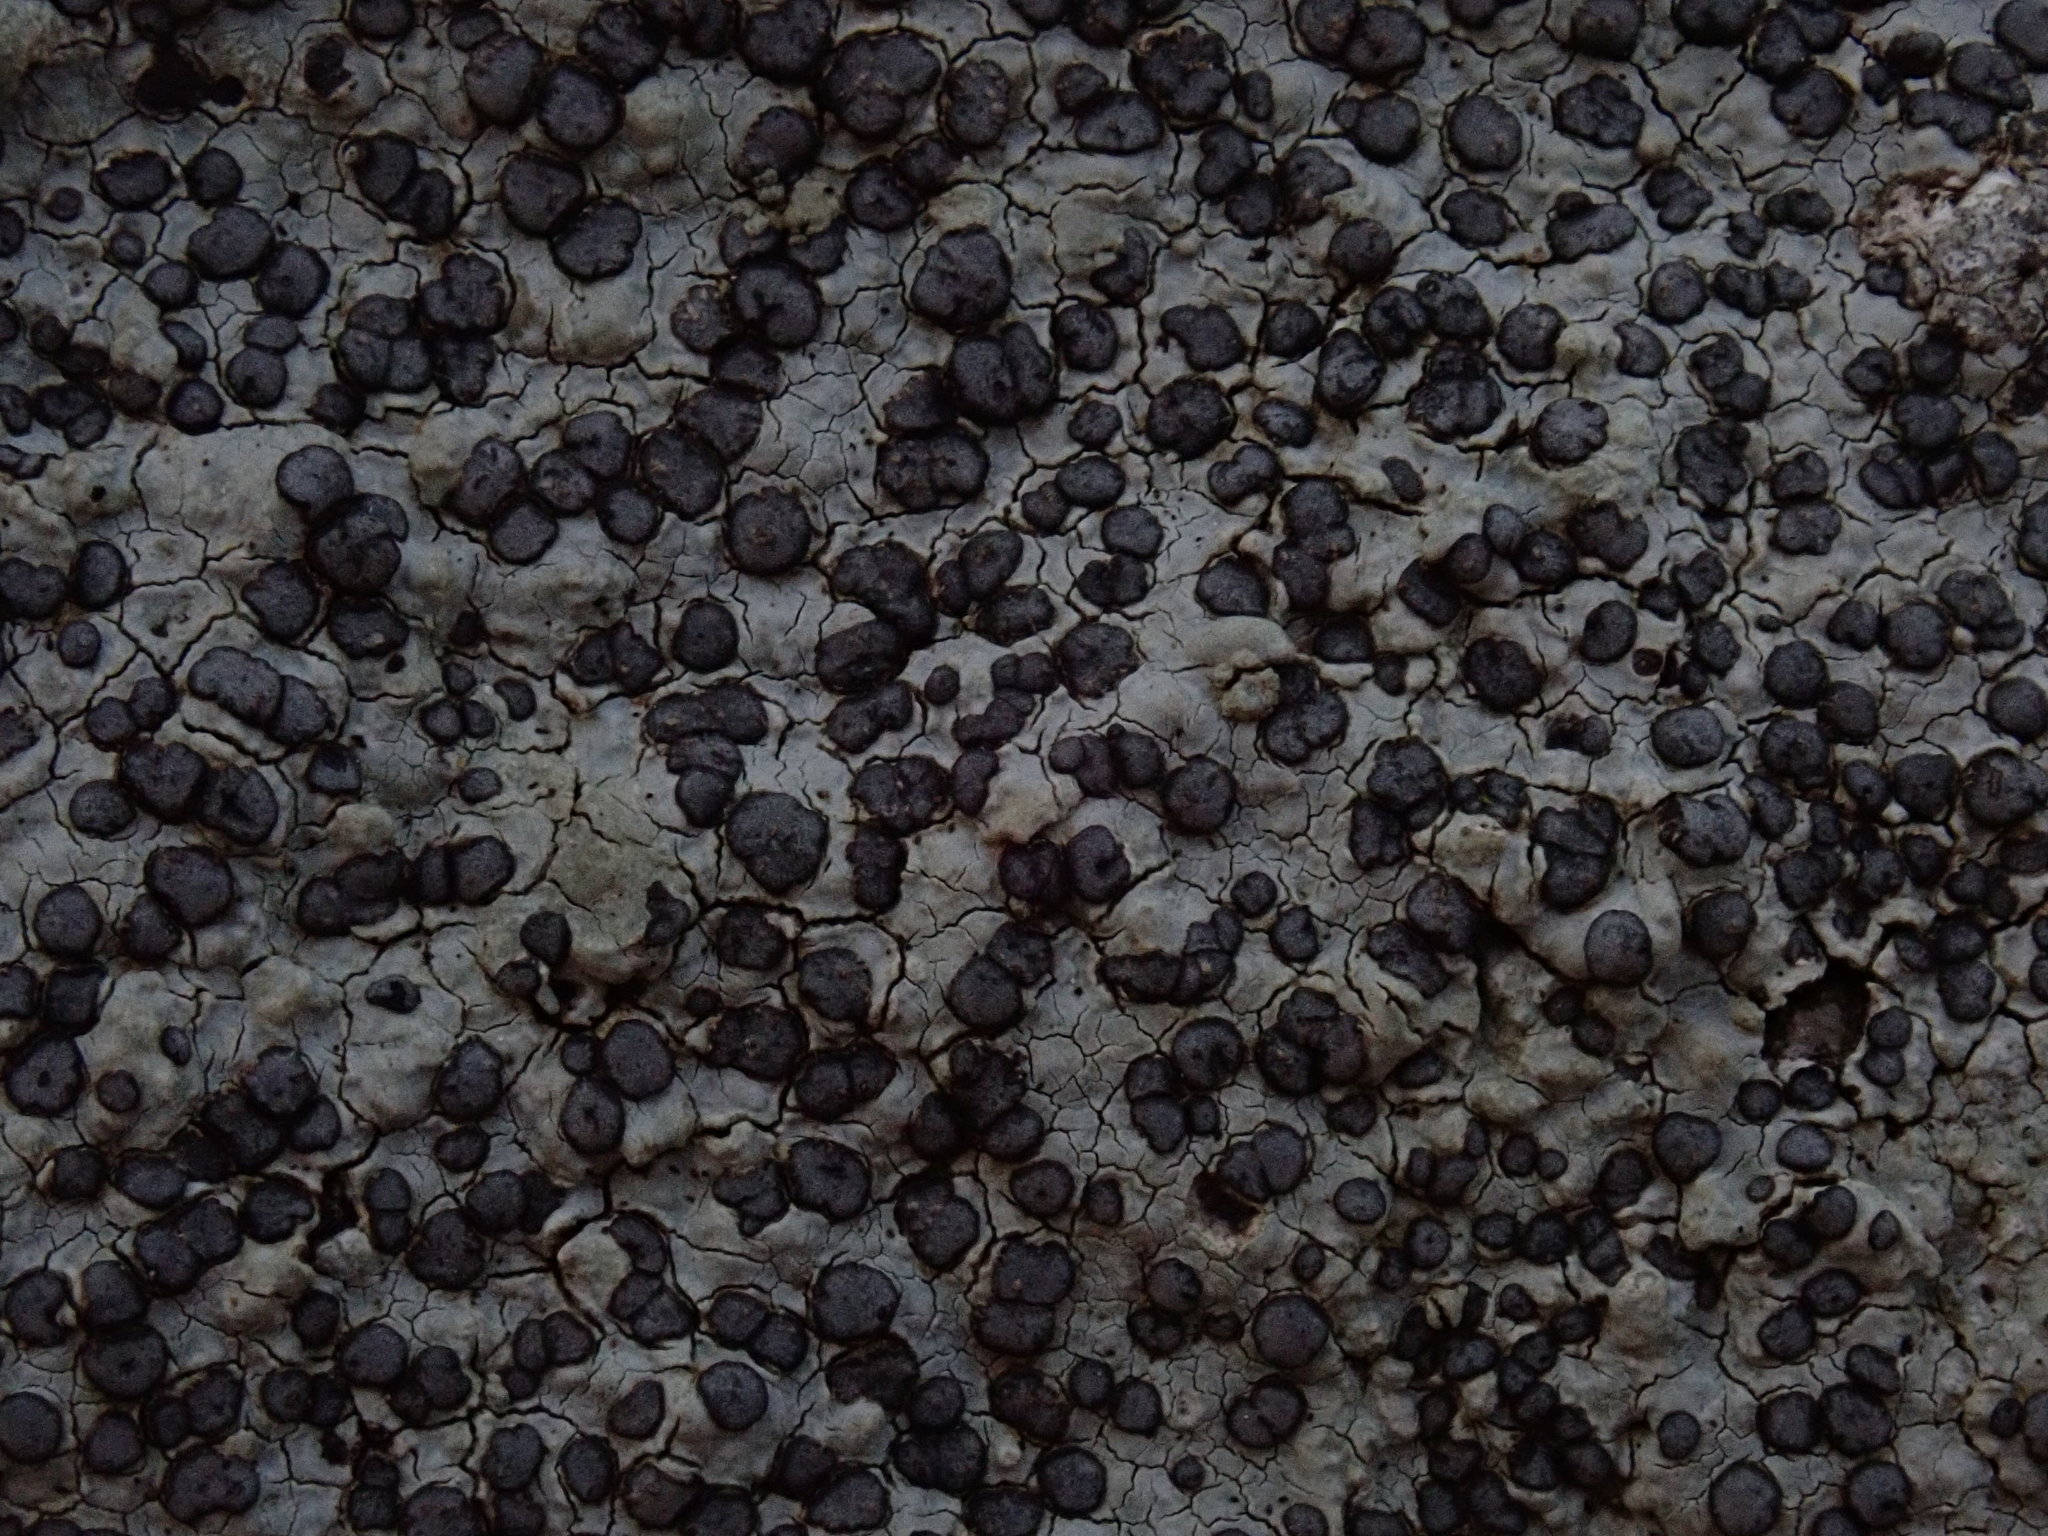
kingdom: Fungi
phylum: Ascomycota
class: Lecanoromycetes
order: Lecideales
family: Lecideaceae
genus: Porpidia
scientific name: Porpidia albocaerulescens
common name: Smokey-eyed boulder lichen
